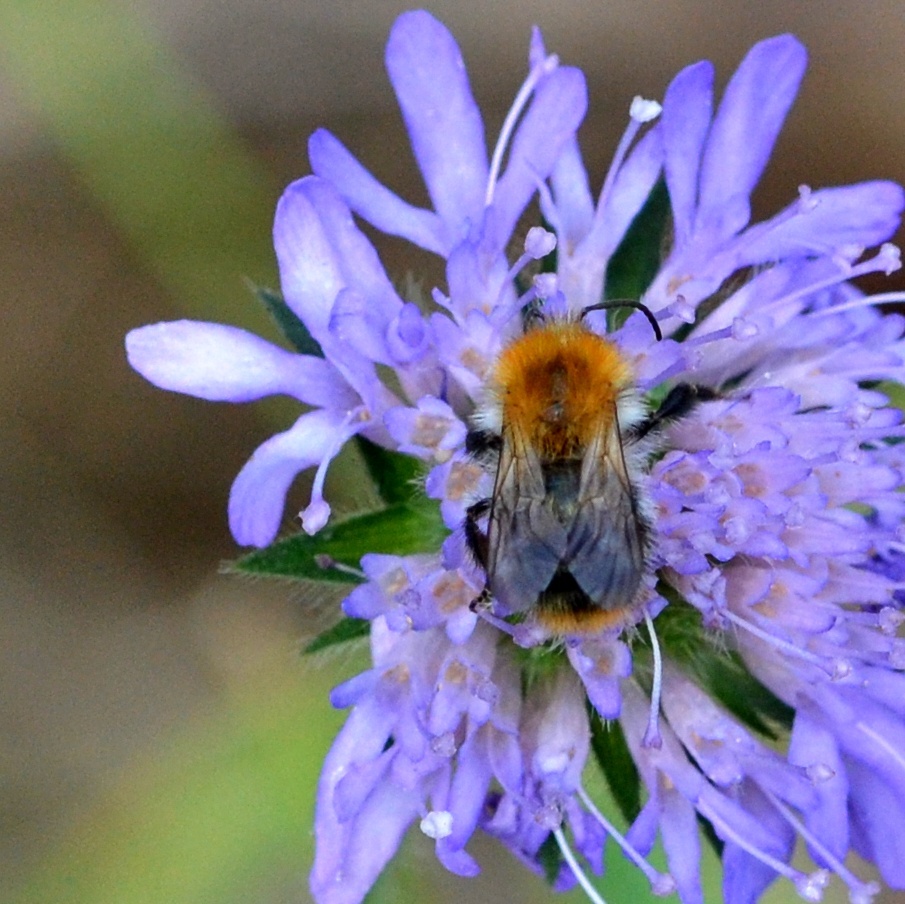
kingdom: Animalia
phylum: Arthropoda
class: Insecta
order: Hymenoptera
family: Apidae
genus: Bombus
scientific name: Bombus pascuorum
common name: Common carder bee
